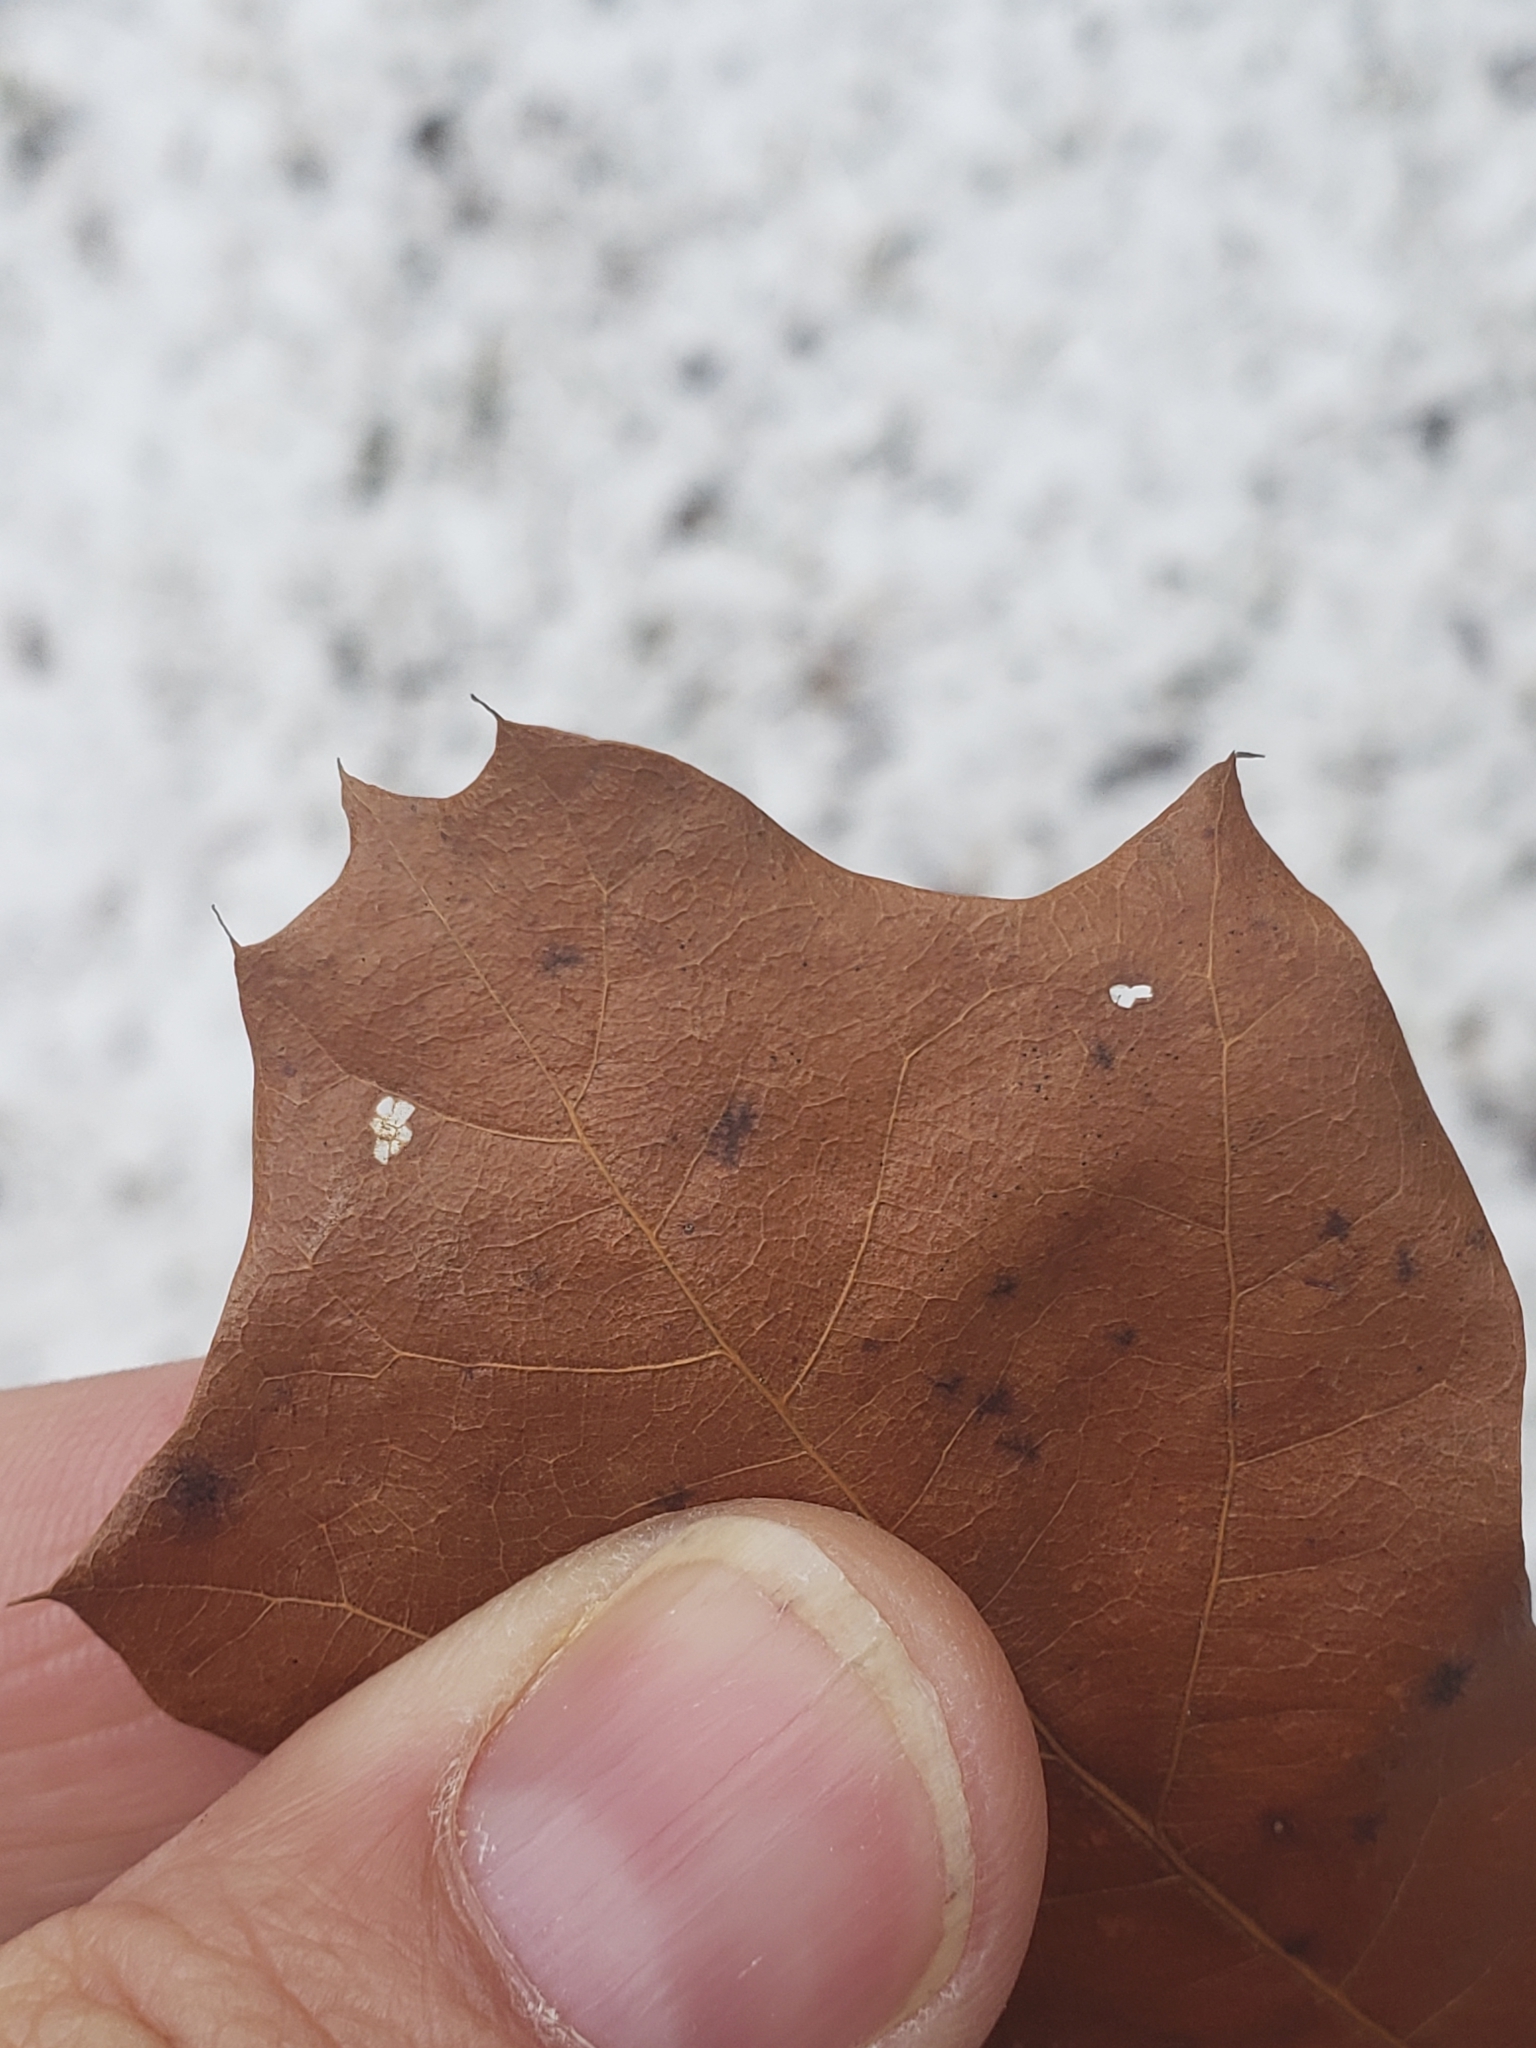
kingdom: Plantae
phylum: Tracheophyta
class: Magnoliopsida
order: Fagales
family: Fagaceae
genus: Quercus
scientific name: Quercus ilicifolia
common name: Bear oak
